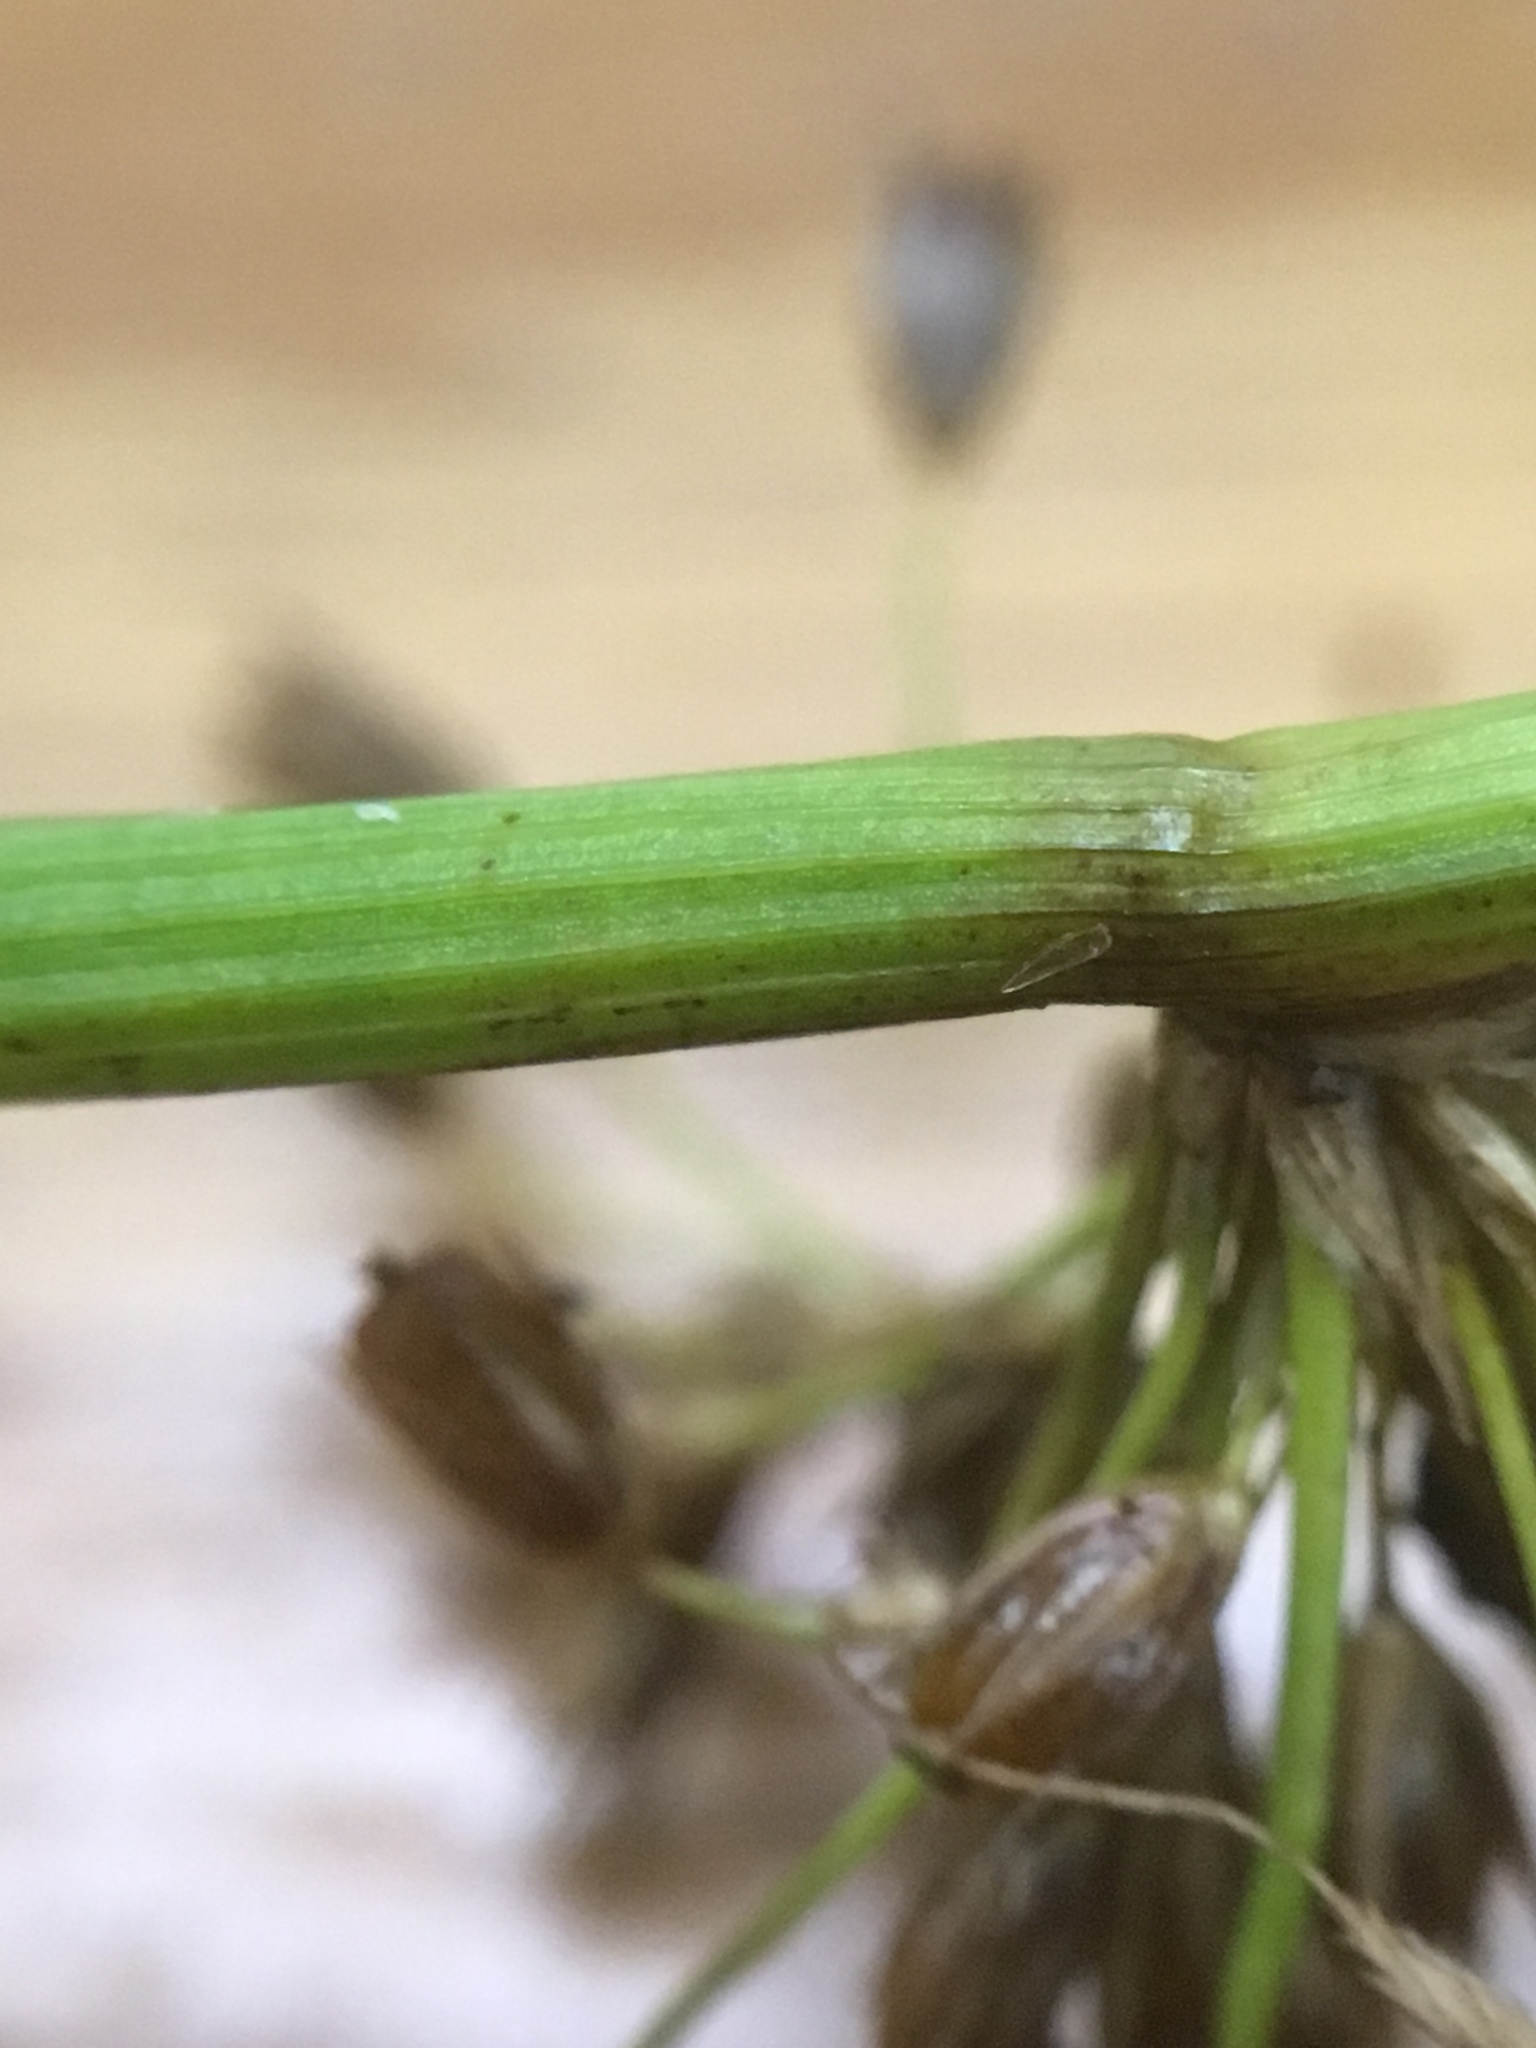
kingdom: Plantae
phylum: Tracheophyta
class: Liliopsida
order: Poales
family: Juncaceae
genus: Juncus
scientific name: Juncus pylaei
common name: Common rush
